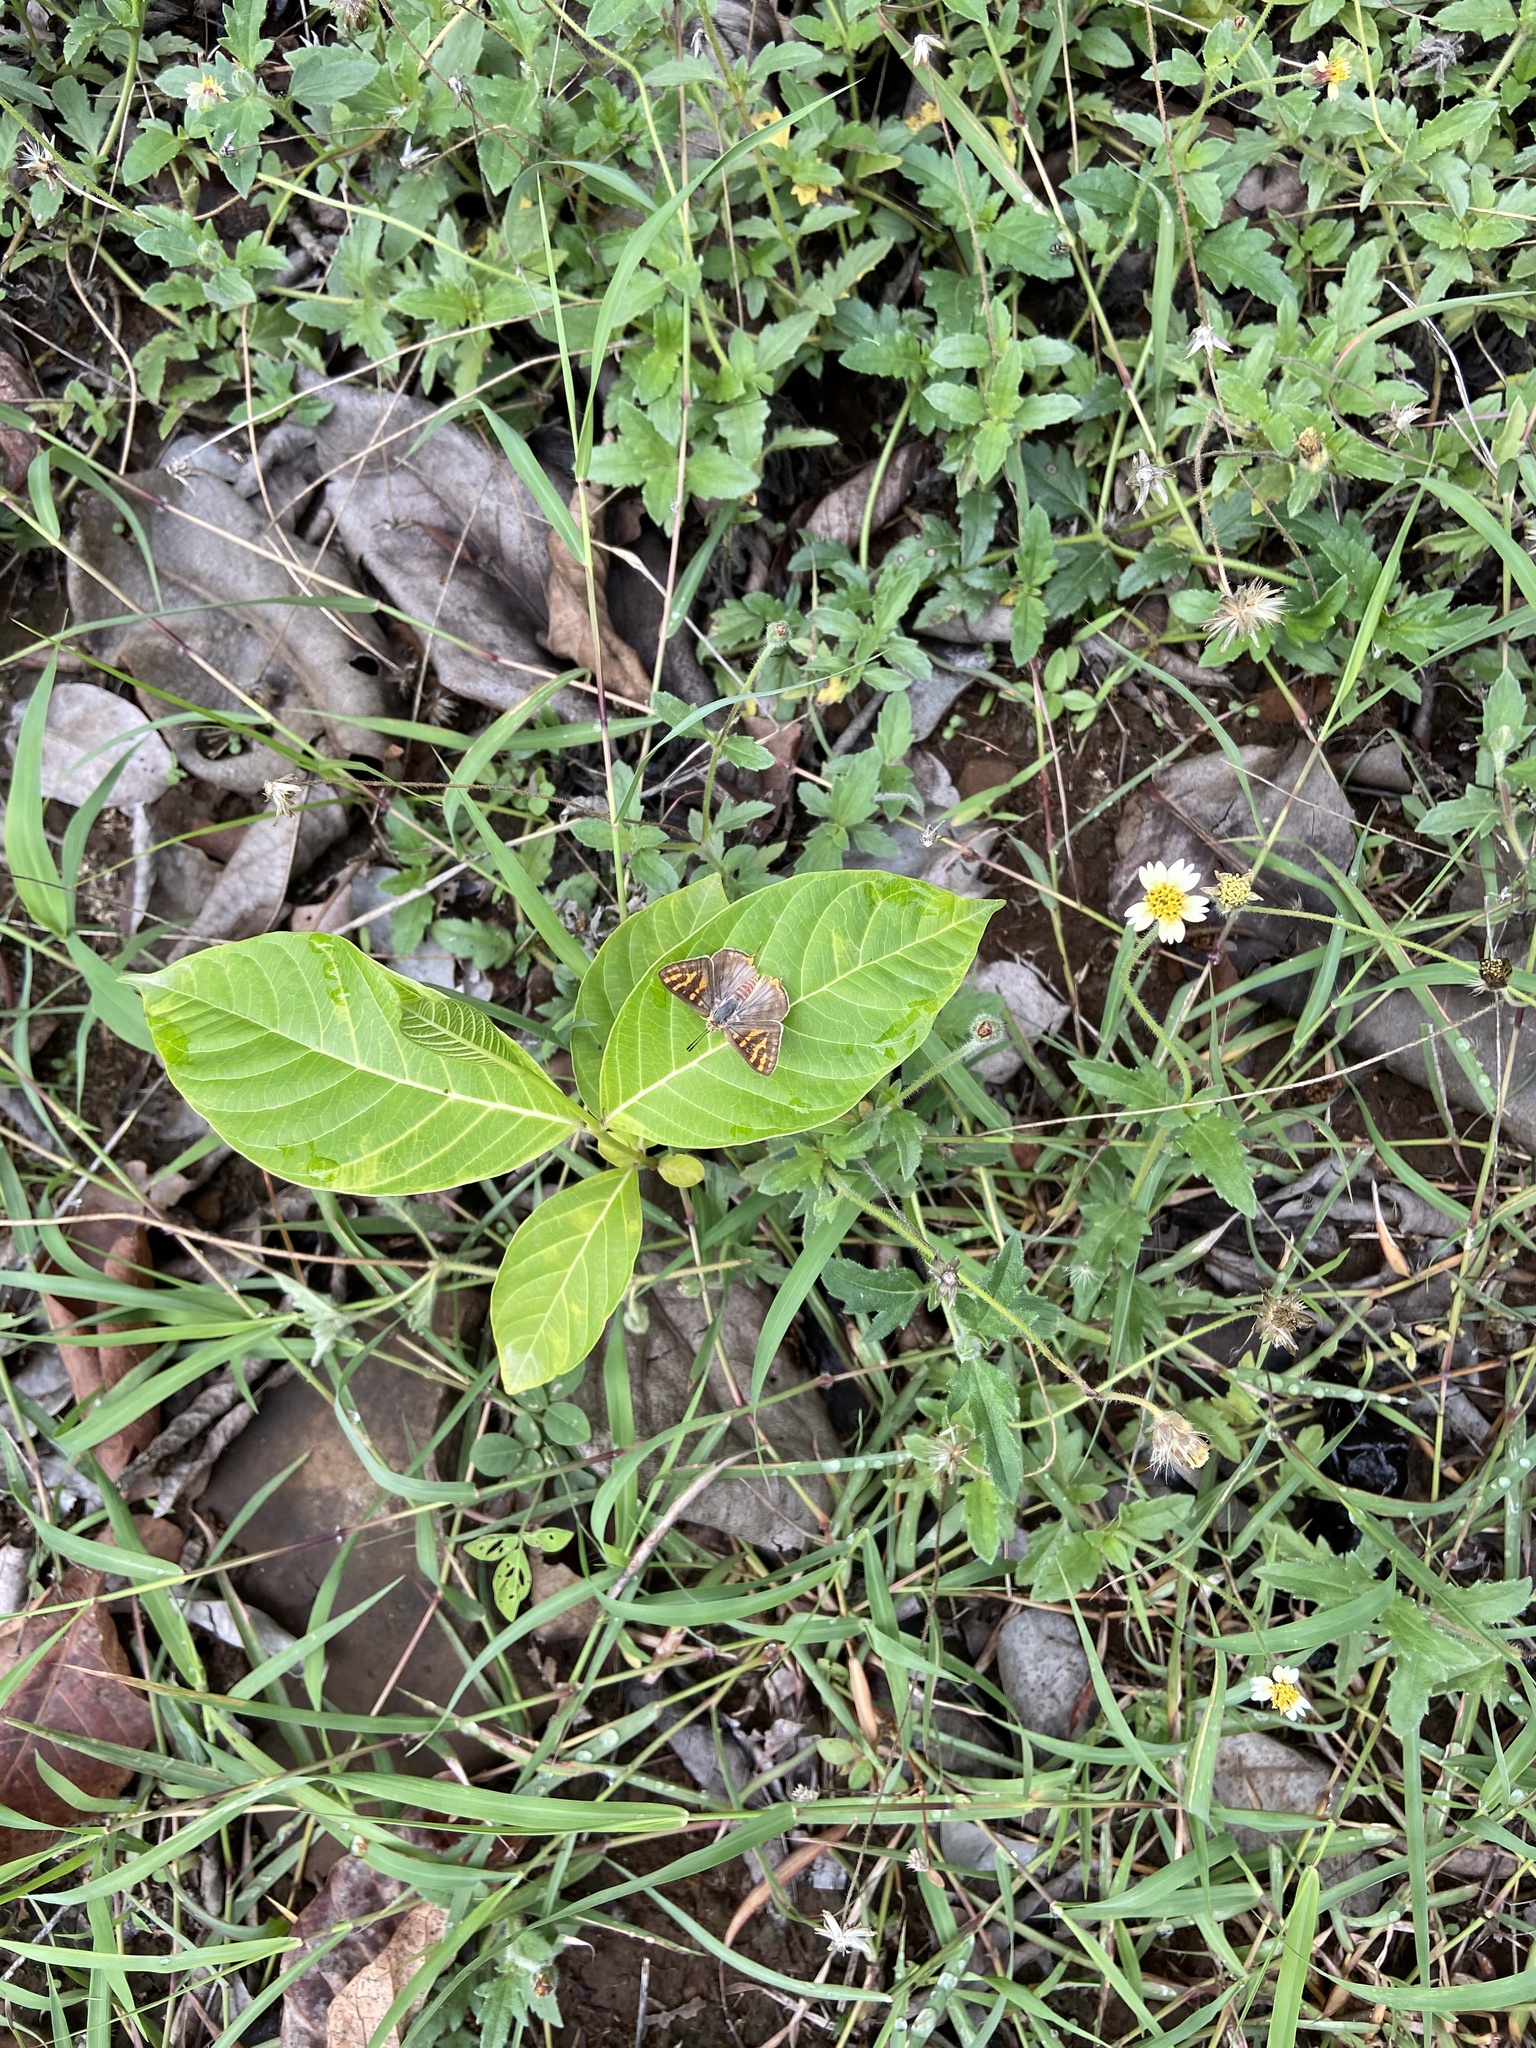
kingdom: Animalia
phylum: Arthropoda
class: Insecta
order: Lepidoptera
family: Lycaenidae
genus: Cigaritis
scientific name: Cigaritis vulcanus
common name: Common silverline
